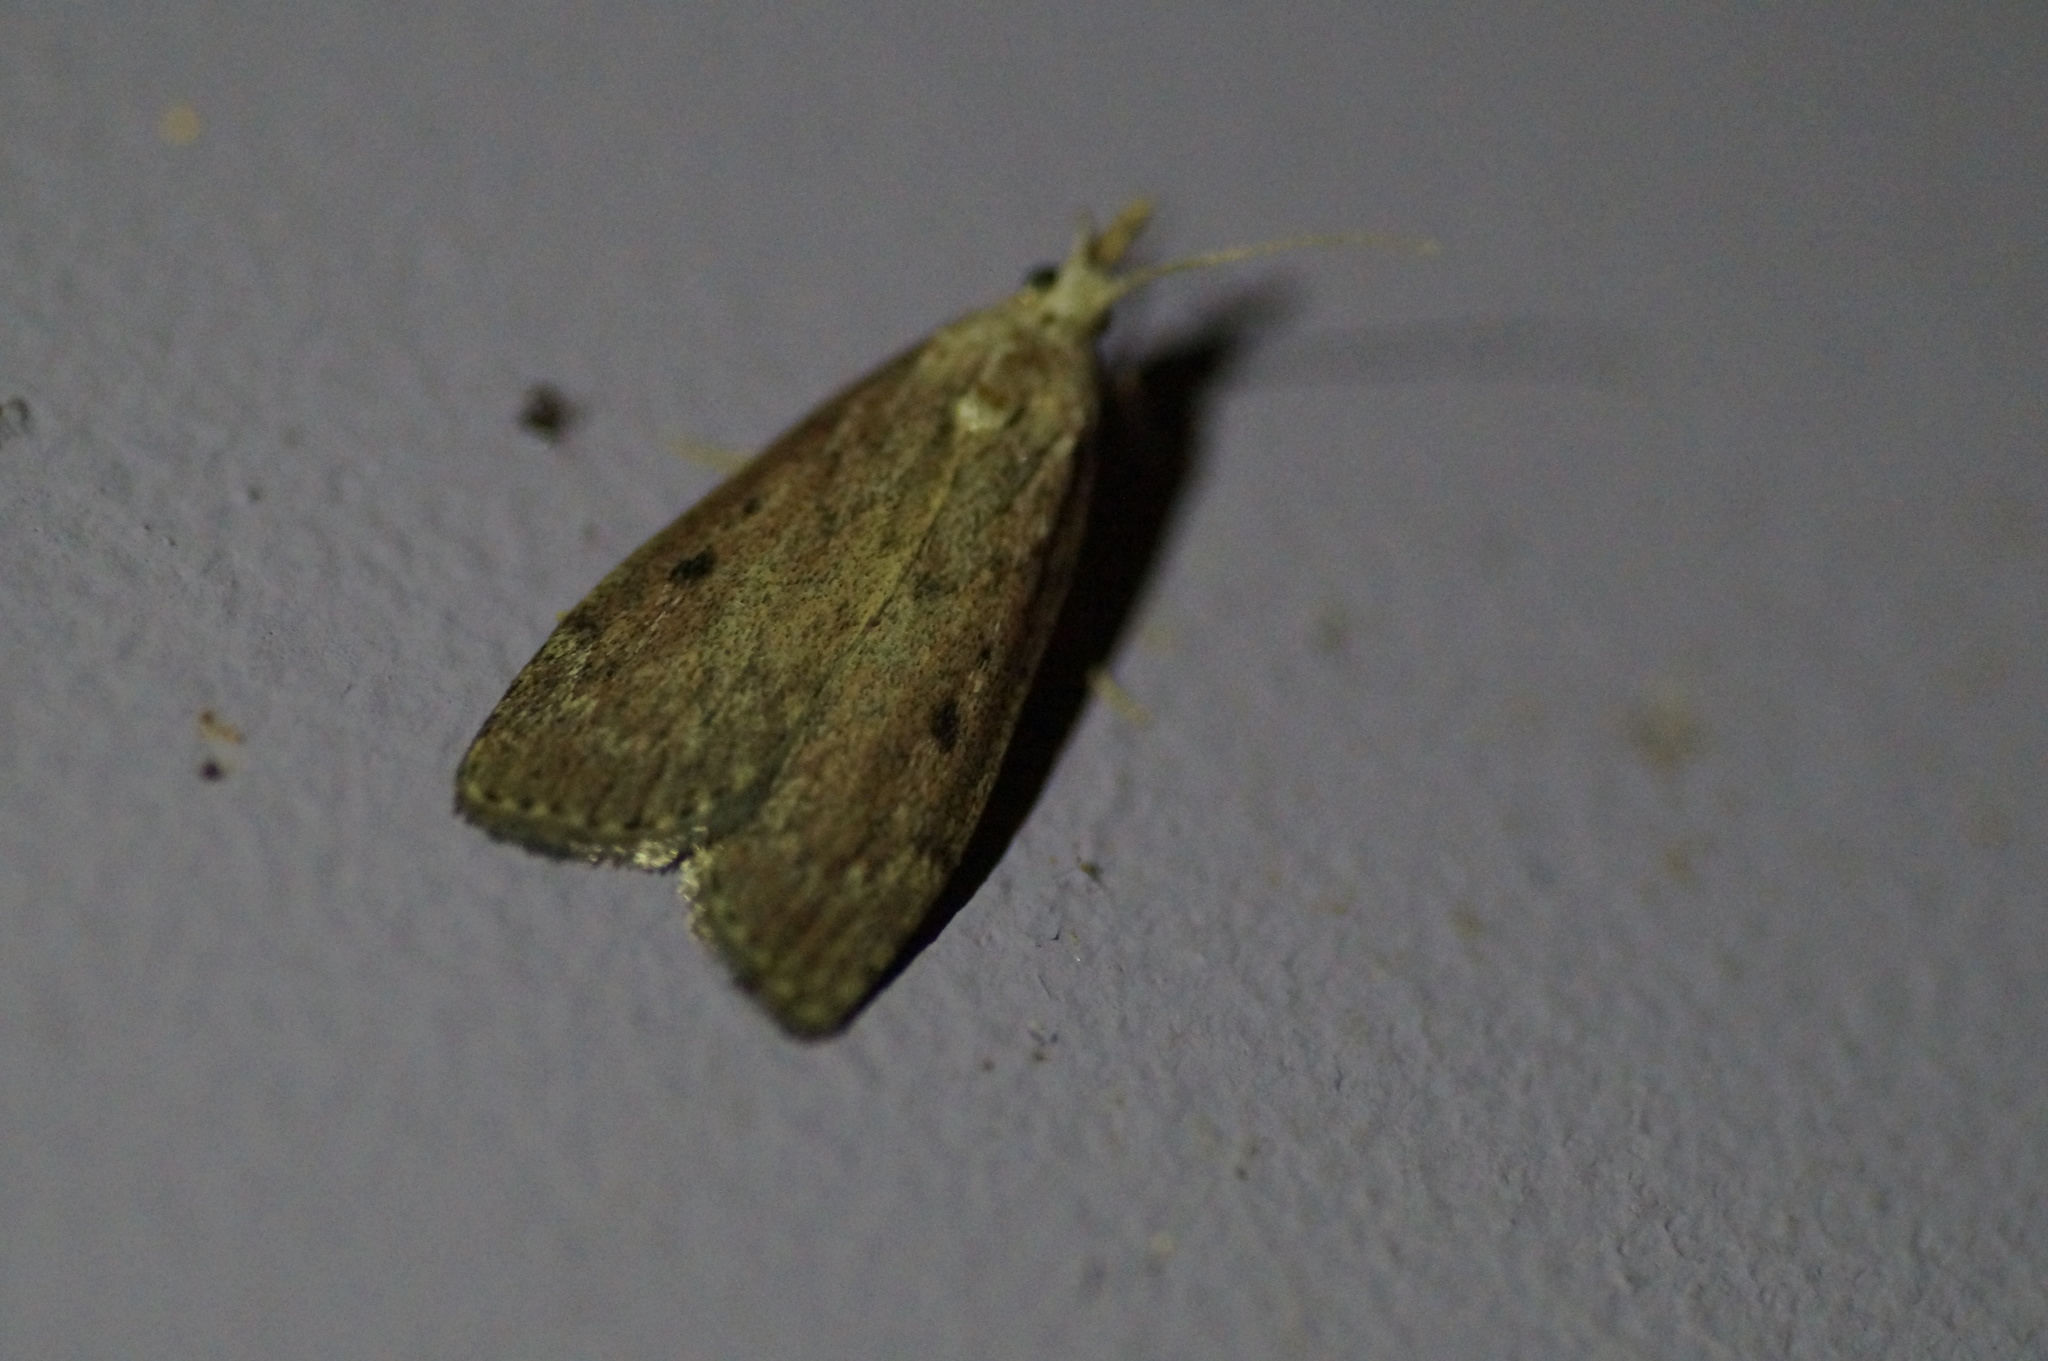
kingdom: Animalia
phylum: Arthropoda
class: Insecta
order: Lepidoptera
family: Pyralidae
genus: Aphomia
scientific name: Aphomia sociella
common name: Bee moth
